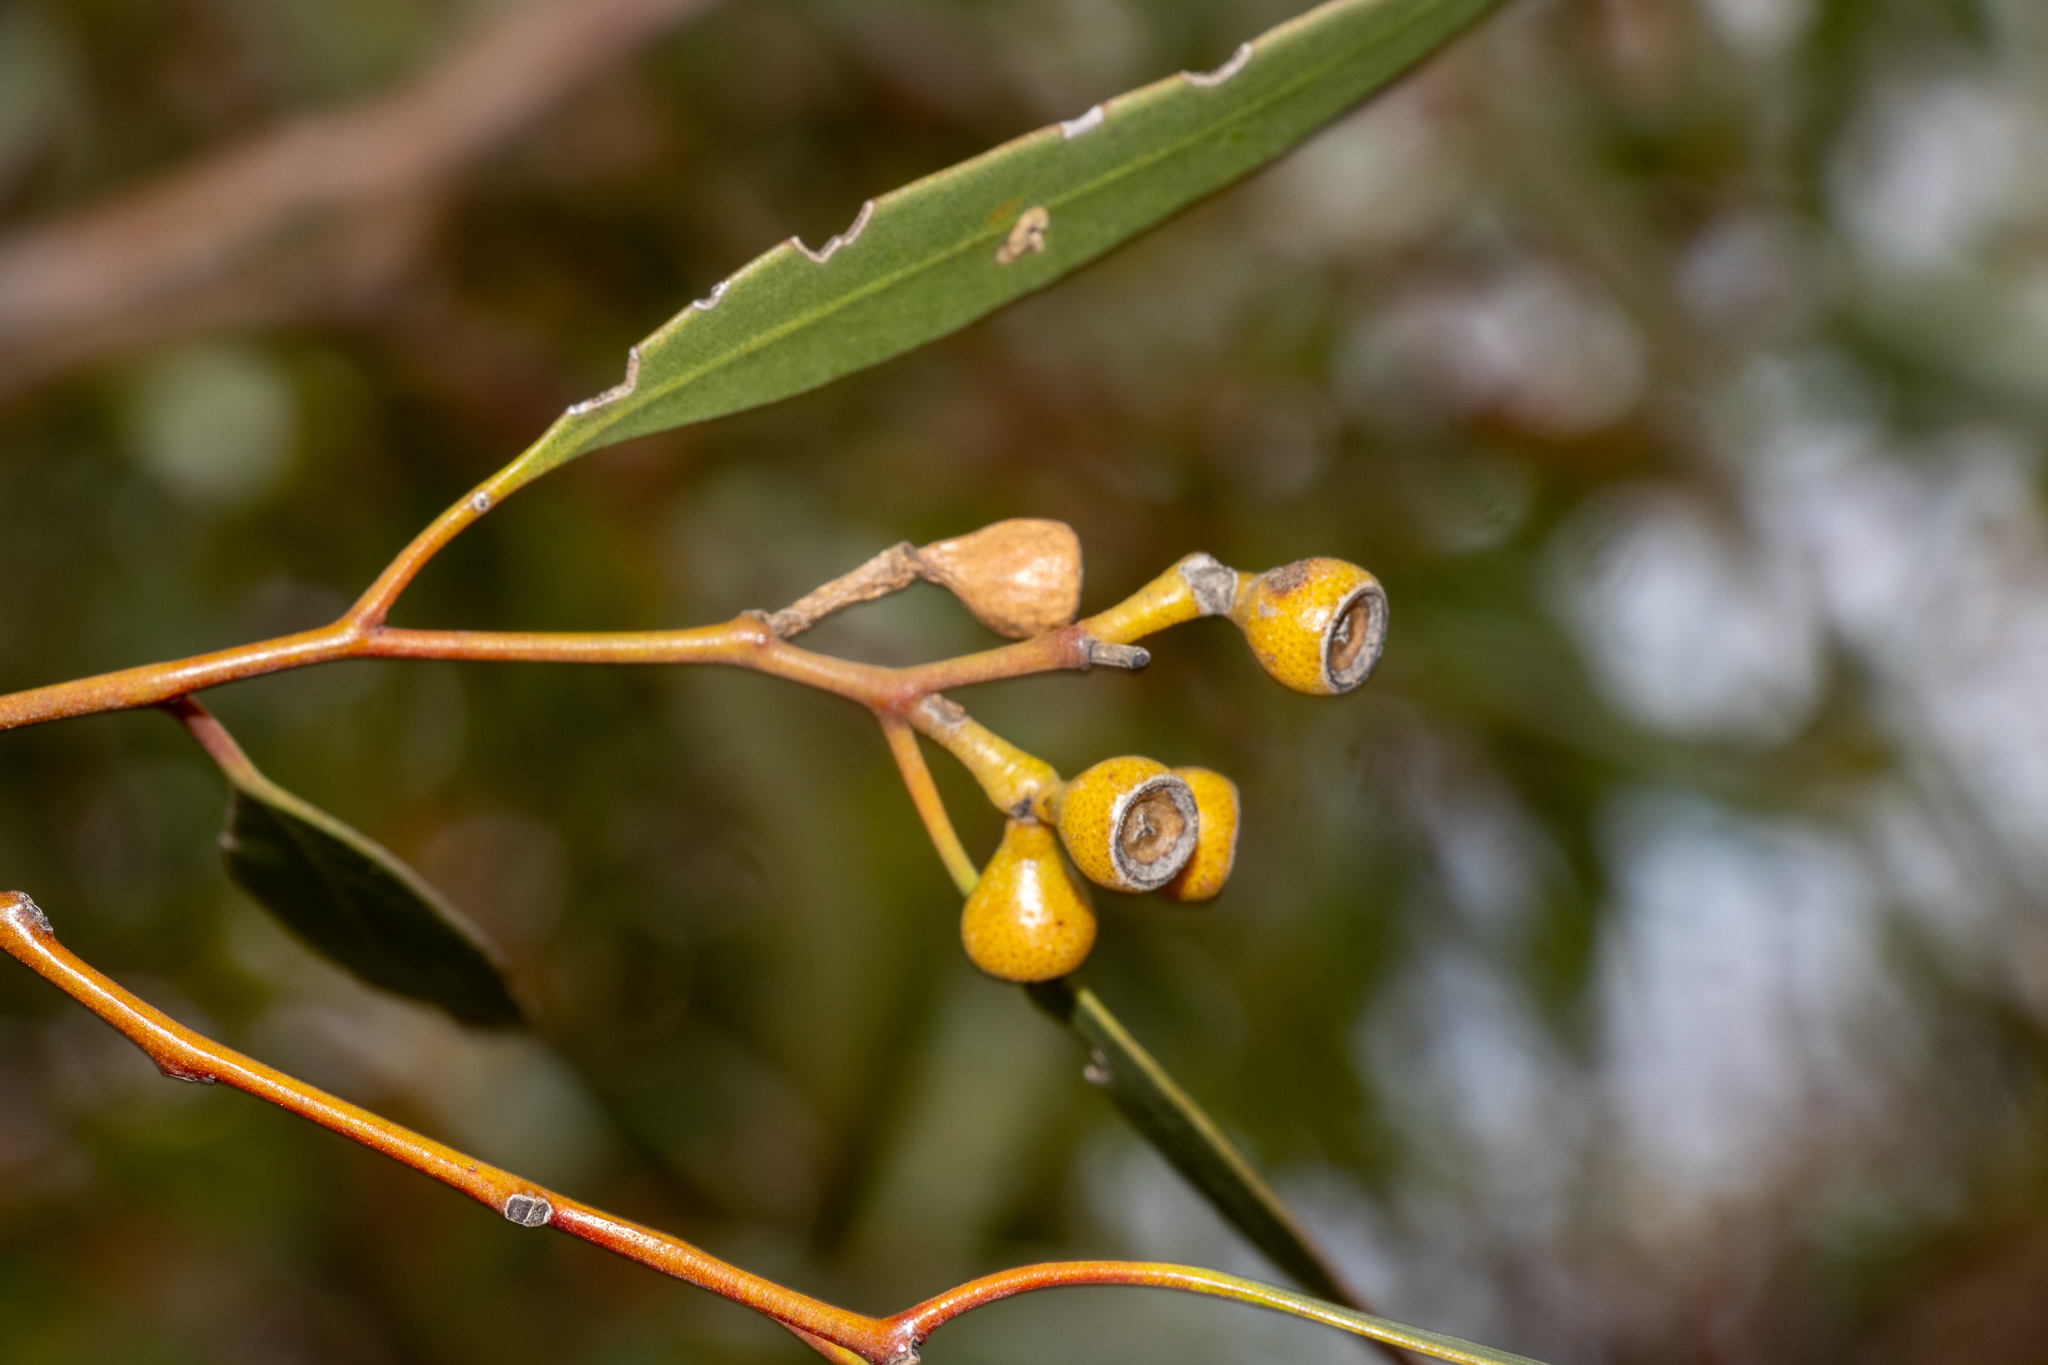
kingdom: Plantae
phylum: Tracheophyta
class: Magnoliopsida
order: Myrtales
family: Myrtaceae
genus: Eucalyptus
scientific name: Eucalyptus gracilis
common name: White mallee
